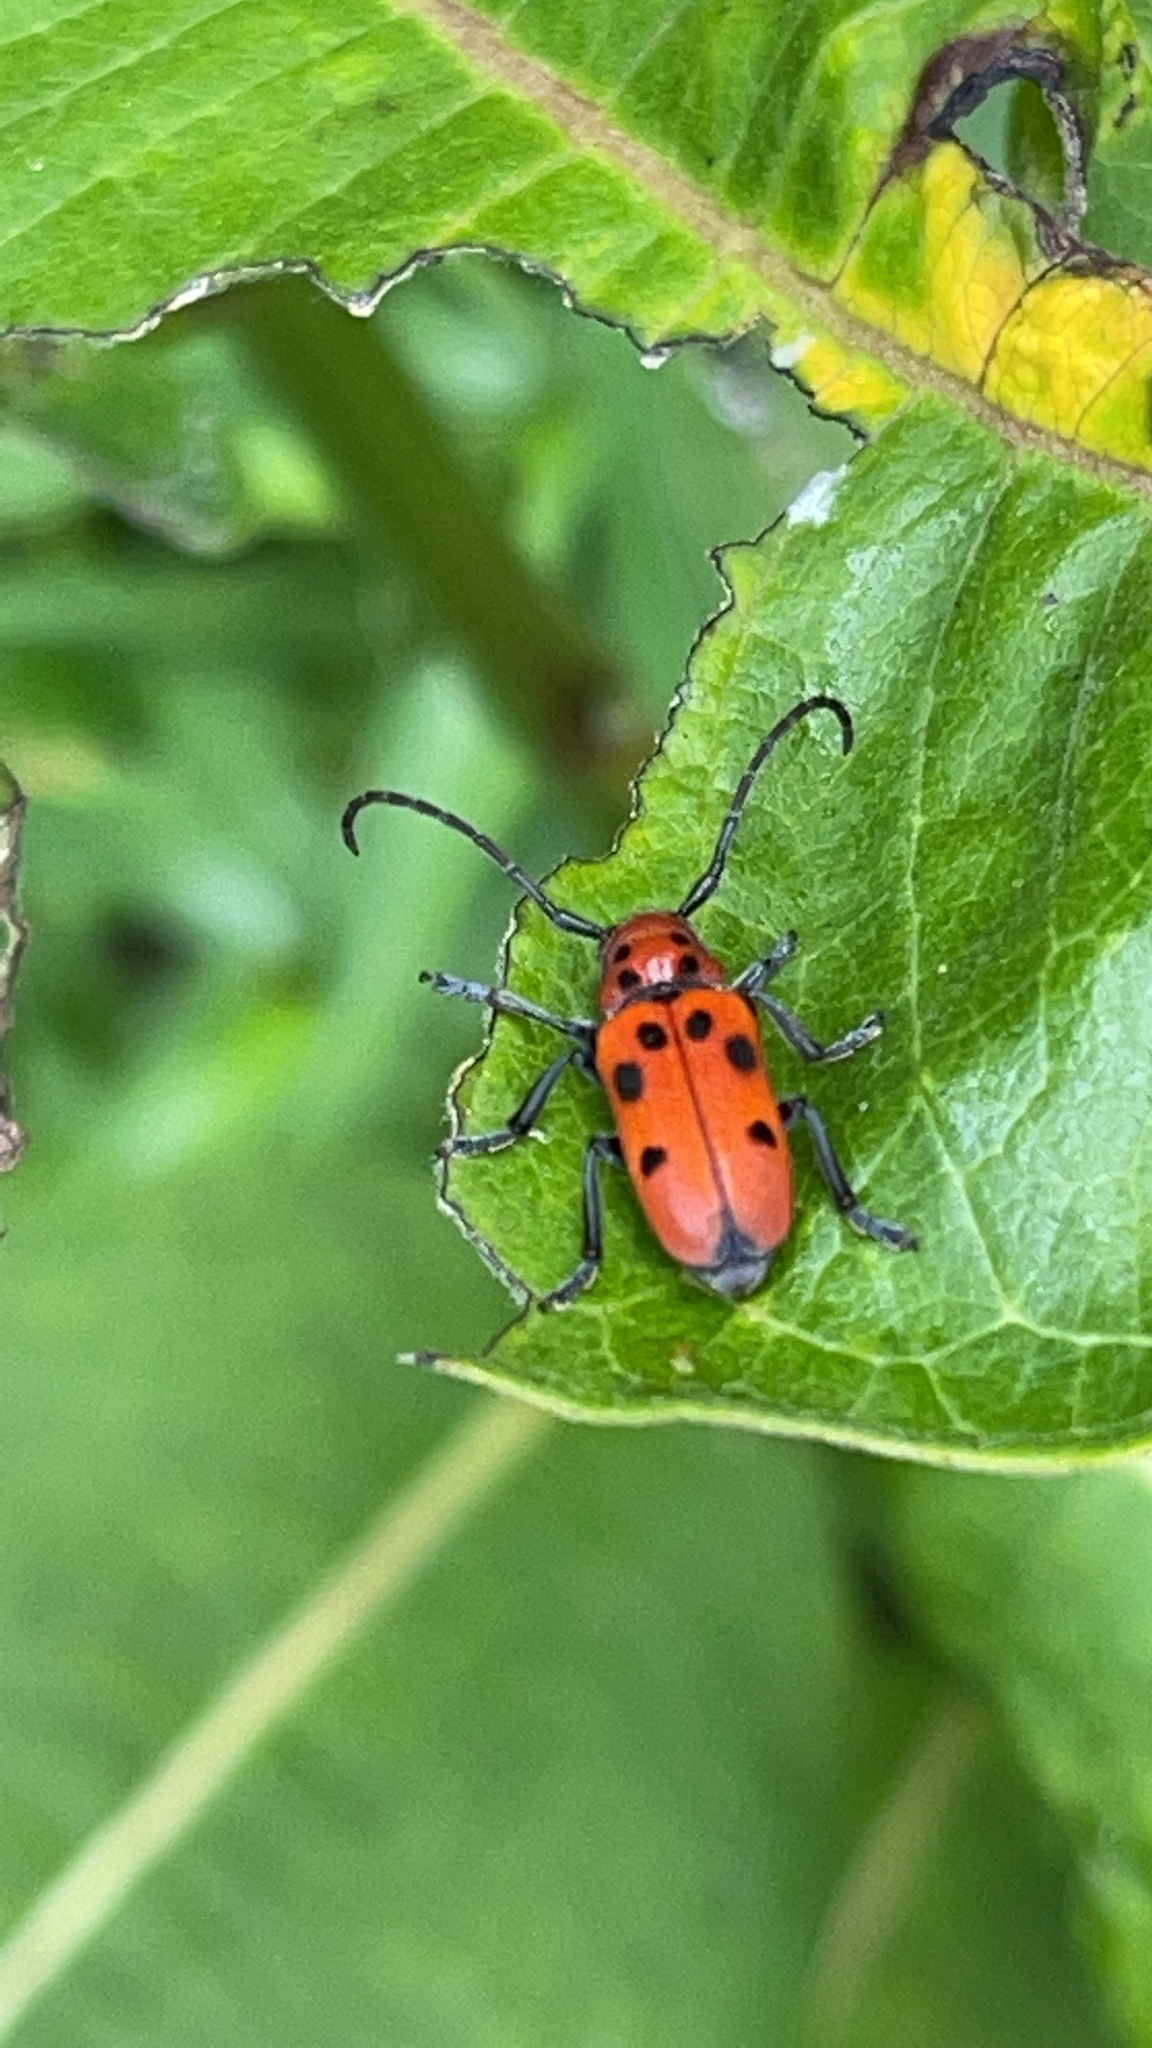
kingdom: Animalia
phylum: Arthropoda
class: Insecta
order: Coleoptera
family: Cerambycidae
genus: Tetraopes
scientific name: Tetraopes tetrophthalmus
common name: Red milkweed beetle
